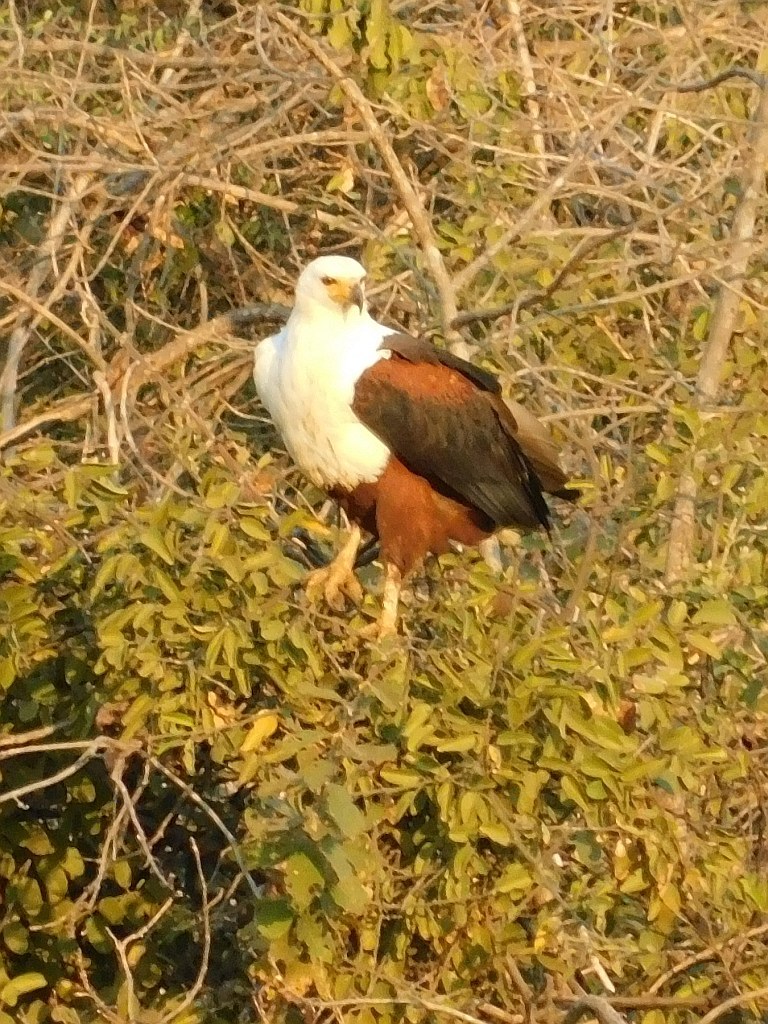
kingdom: Animalia
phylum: Chordata
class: Aves
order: Accipitriformes
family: Accipitridae
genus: Haliaeetus
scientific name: Haliaeetus vocifer
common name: African fish eagle
